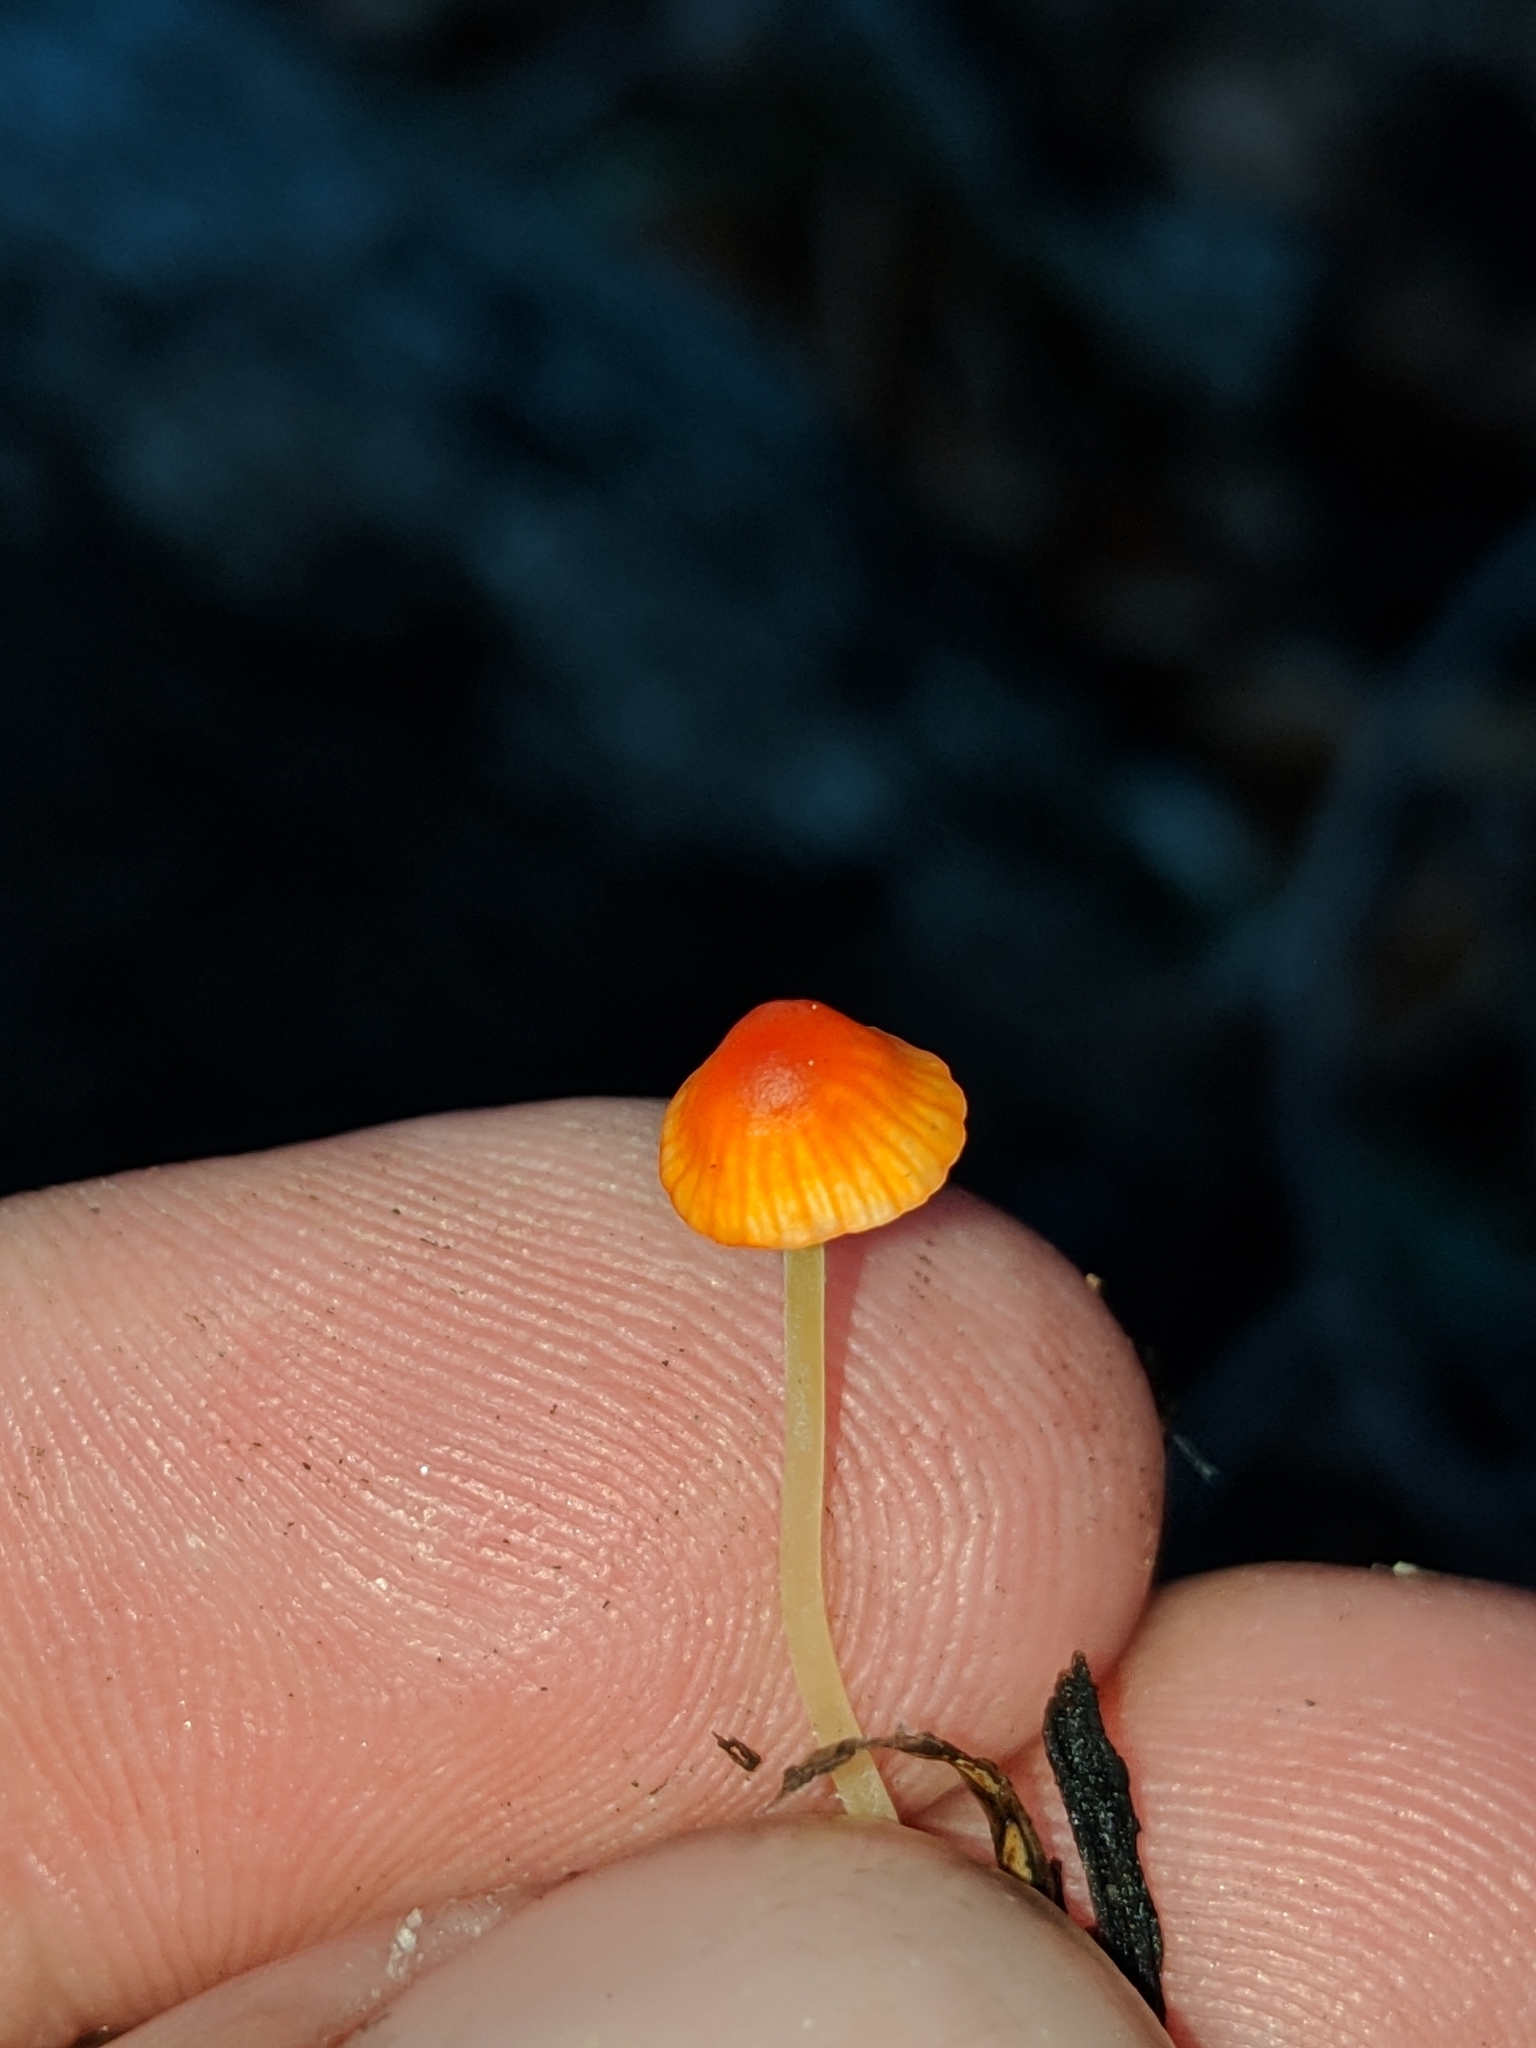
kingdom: Fungi
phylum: Basidiomycota
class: Agaricomycetes
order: Agaricales
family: Mycenaceae
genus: Mycena
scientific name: Mycena acicula
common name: Orange bonnet
